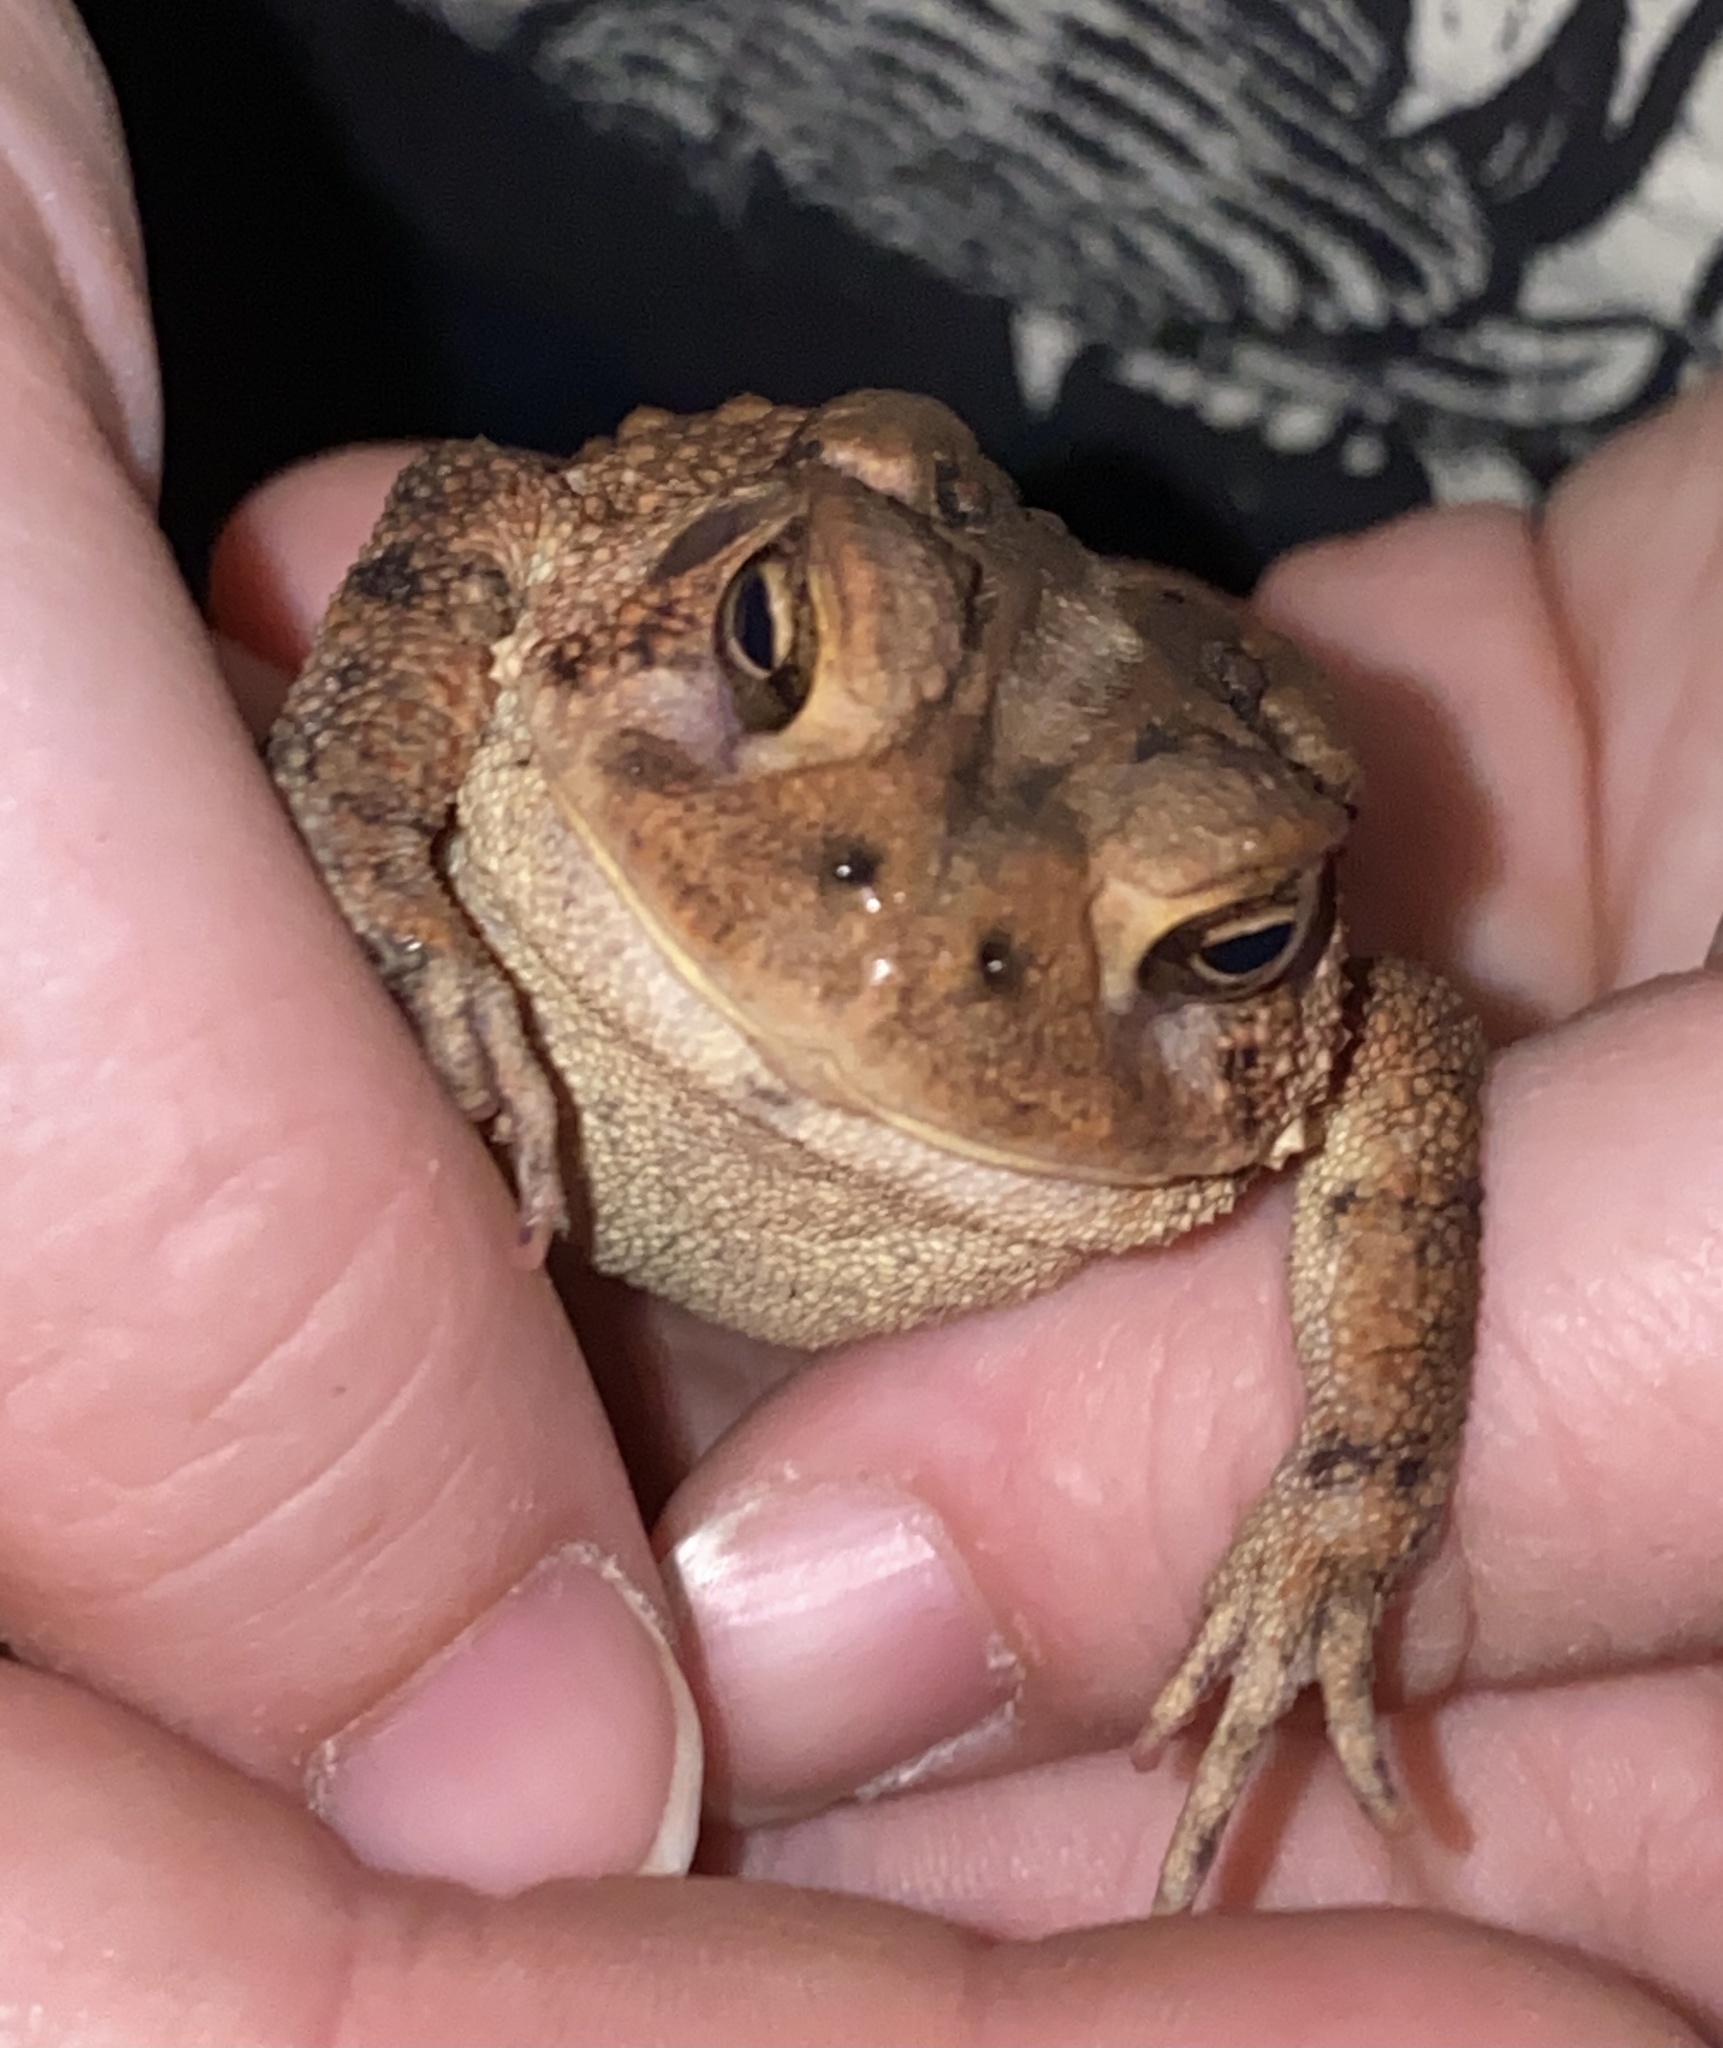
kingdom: Animalia
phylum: Chordata
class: Amphibia
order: Anura
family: Bufonidae
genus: Anaxyrus
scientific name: Anaxyrus americanus
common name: American toad
